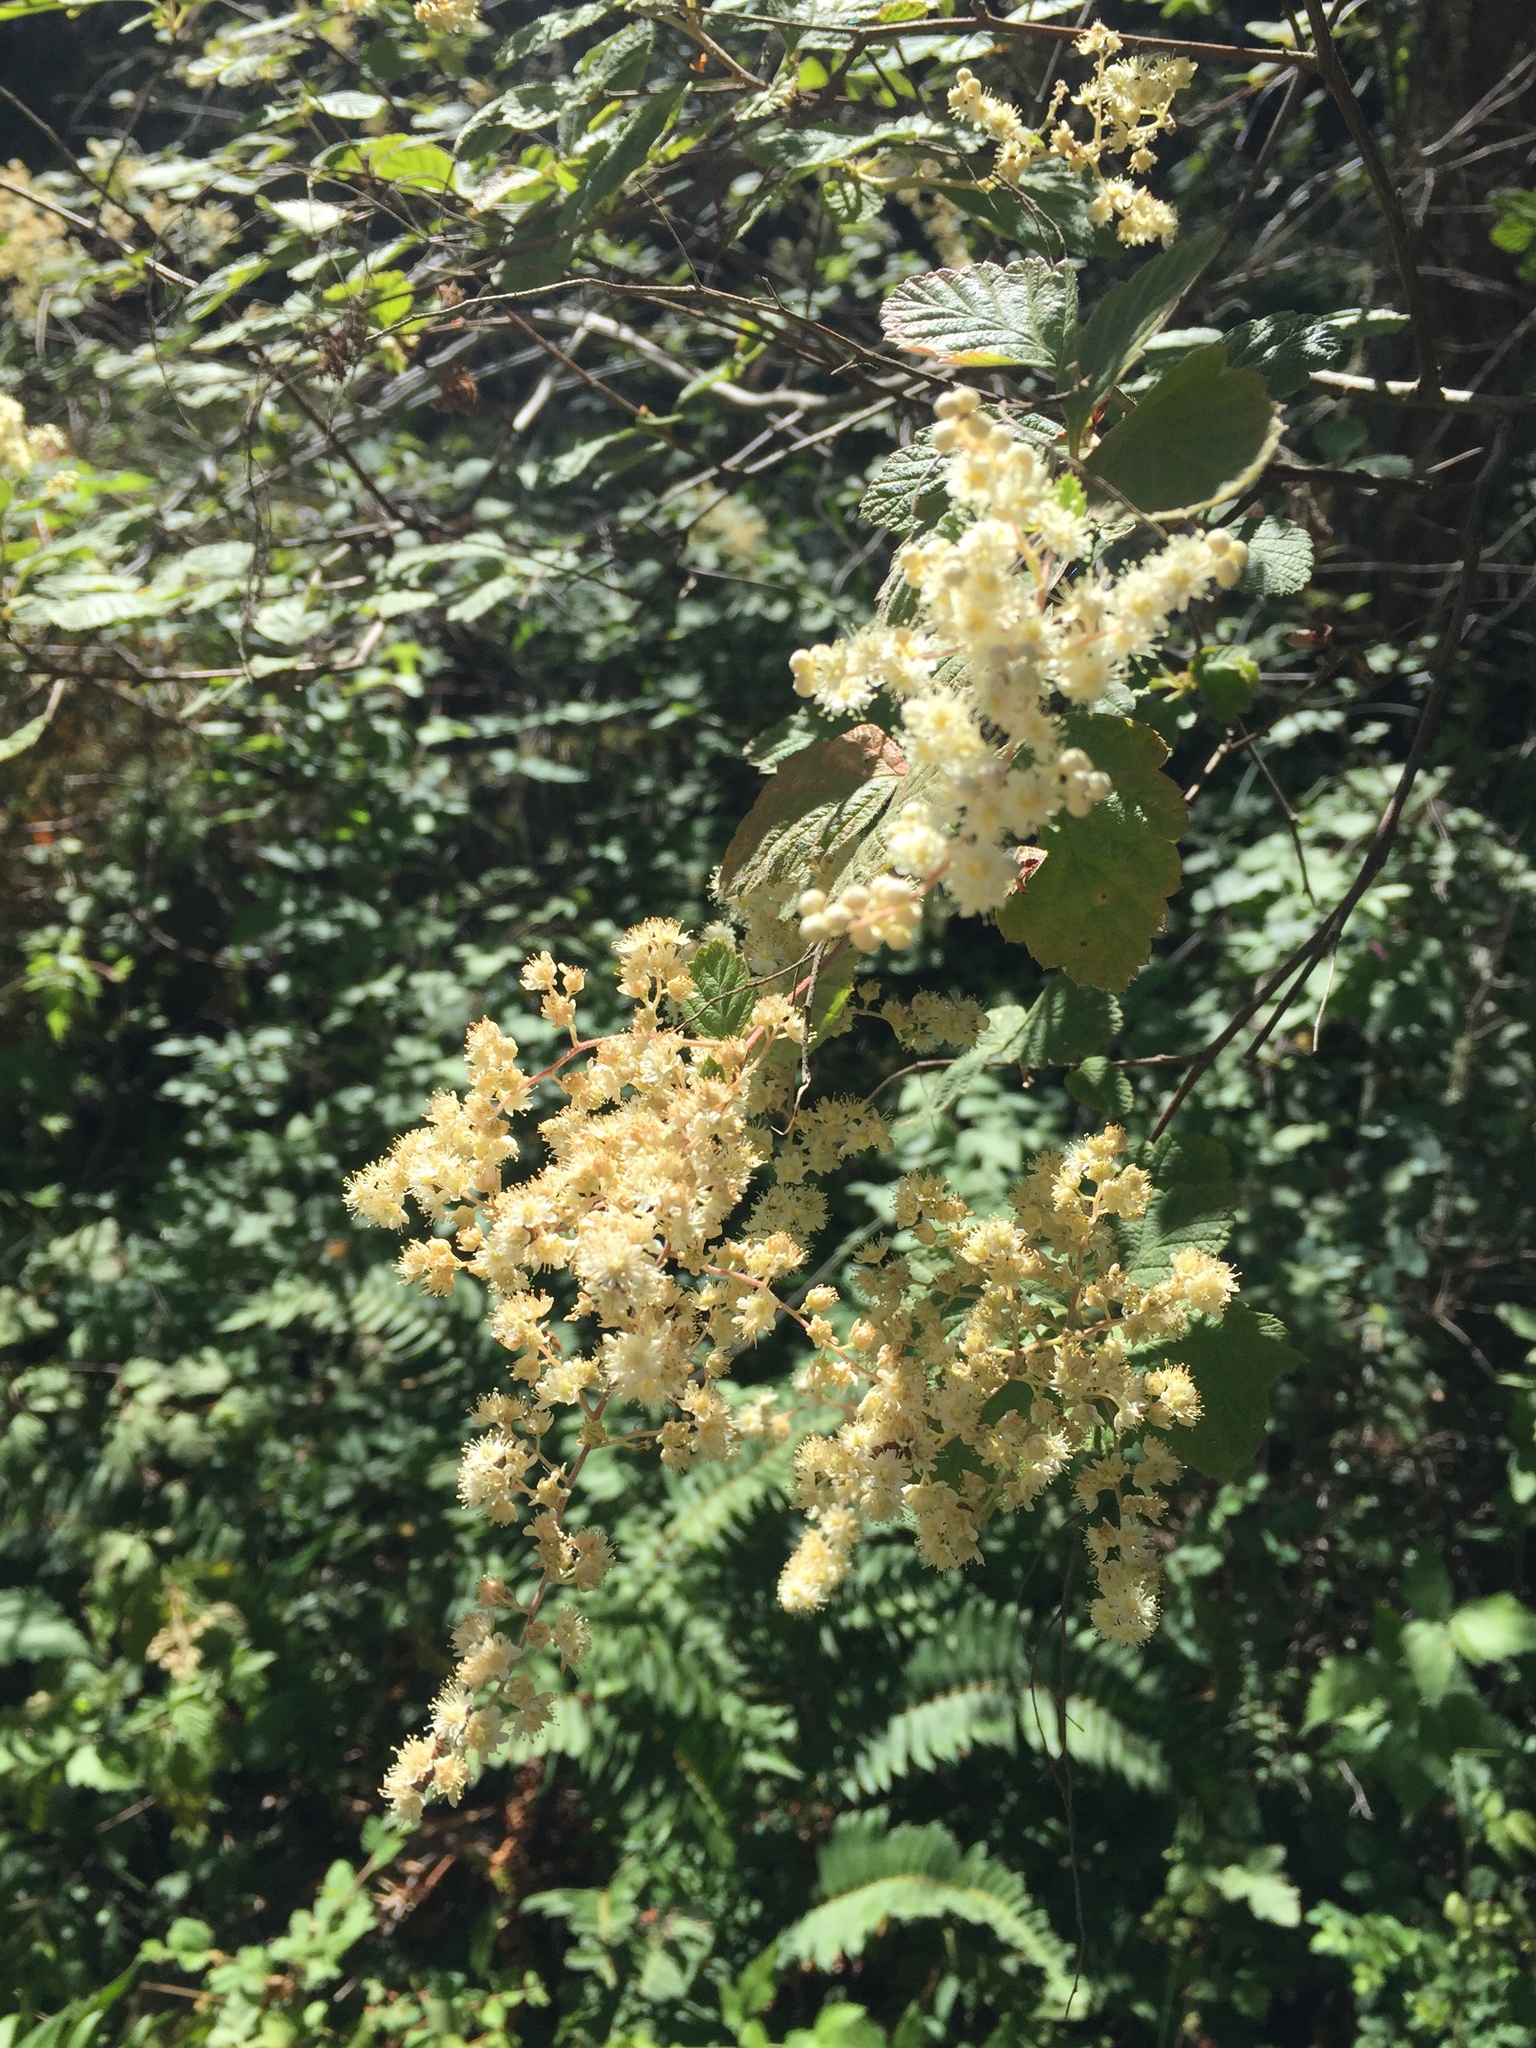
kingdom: Plantae
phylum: Tracheophyta
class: Magnoliopsida
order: Rosales
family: Rosaceae
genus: Holodiscus
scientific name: Holodiscus discolor
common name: Oceanspray
